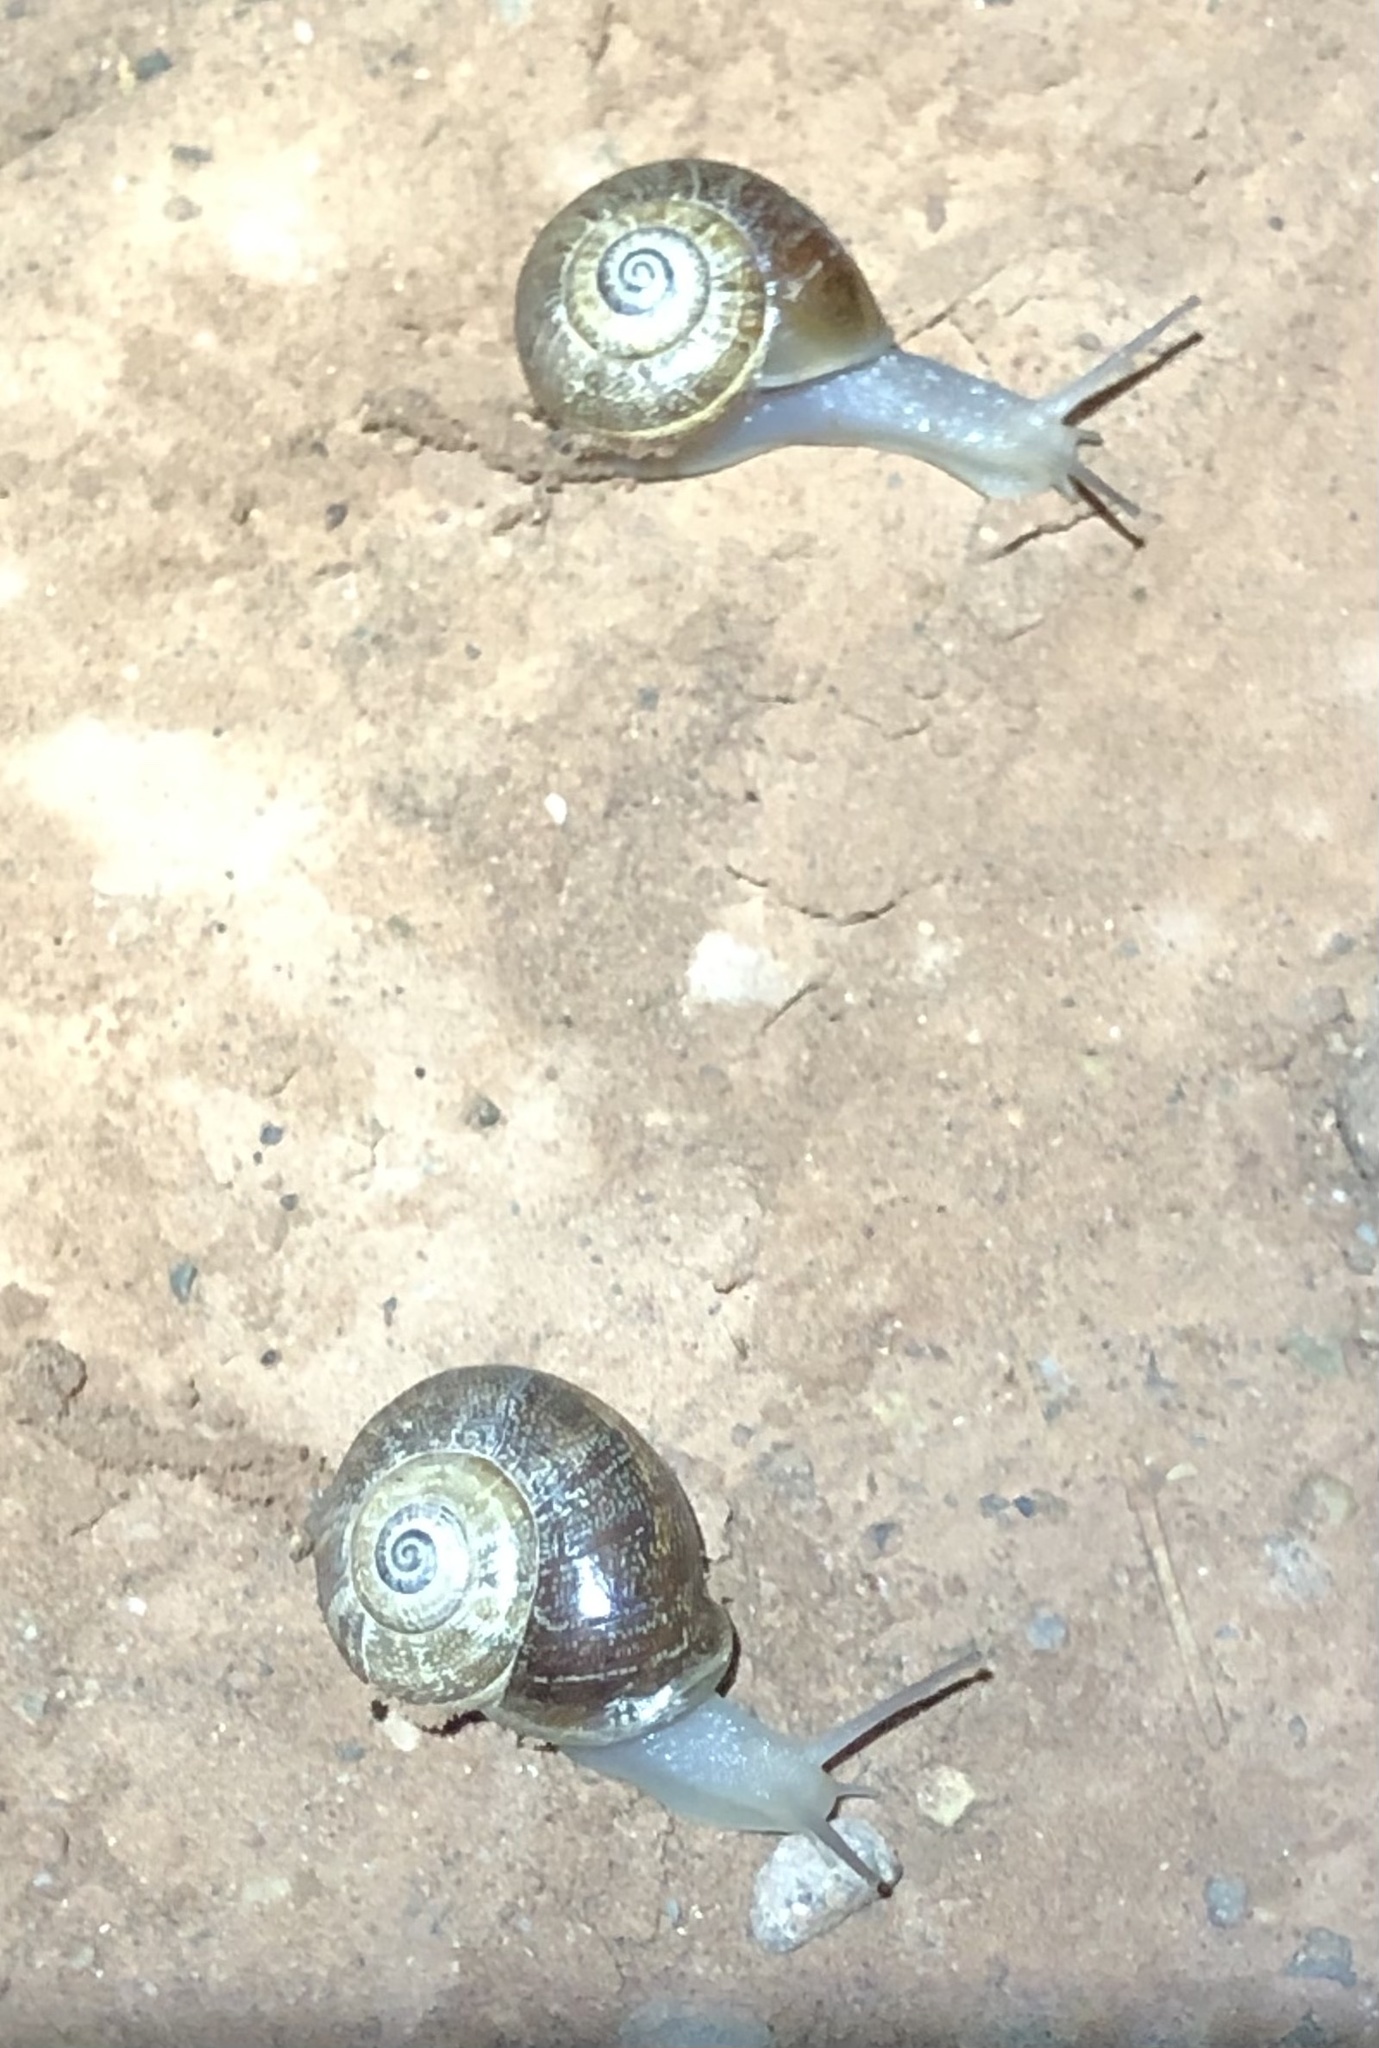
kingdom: Animalia
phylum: Mollusca
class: Gastropoda
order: Stylommatophora
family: Helicidae
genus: Otala
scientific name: Otala punctata
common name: Milk snail
